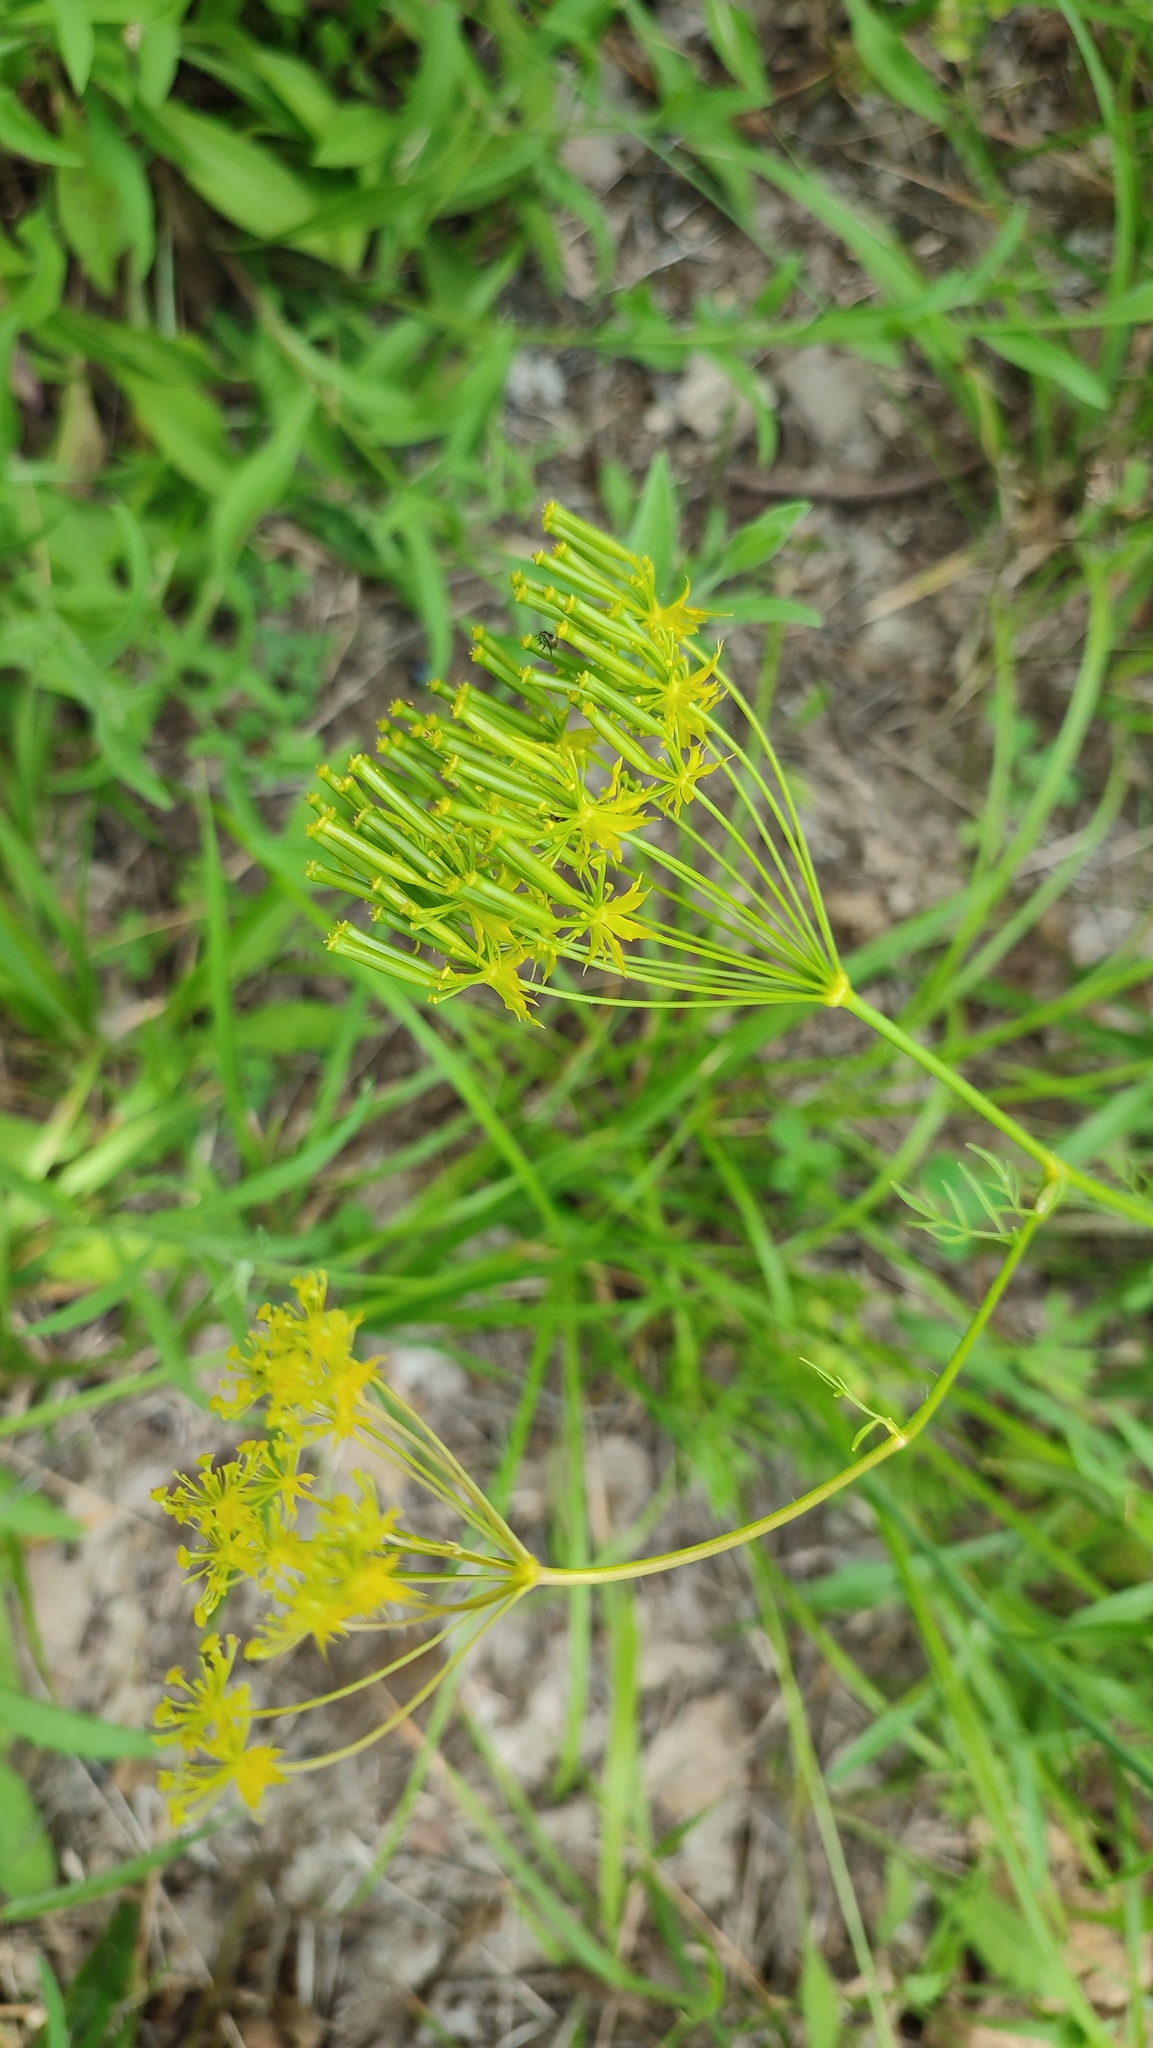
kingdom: Plantae
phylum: Tracheophyta
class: Magnoliopsida
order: Apiales
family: Apiaceae
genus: Chaerophyllum
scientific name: Chaerophyllum coloratum
